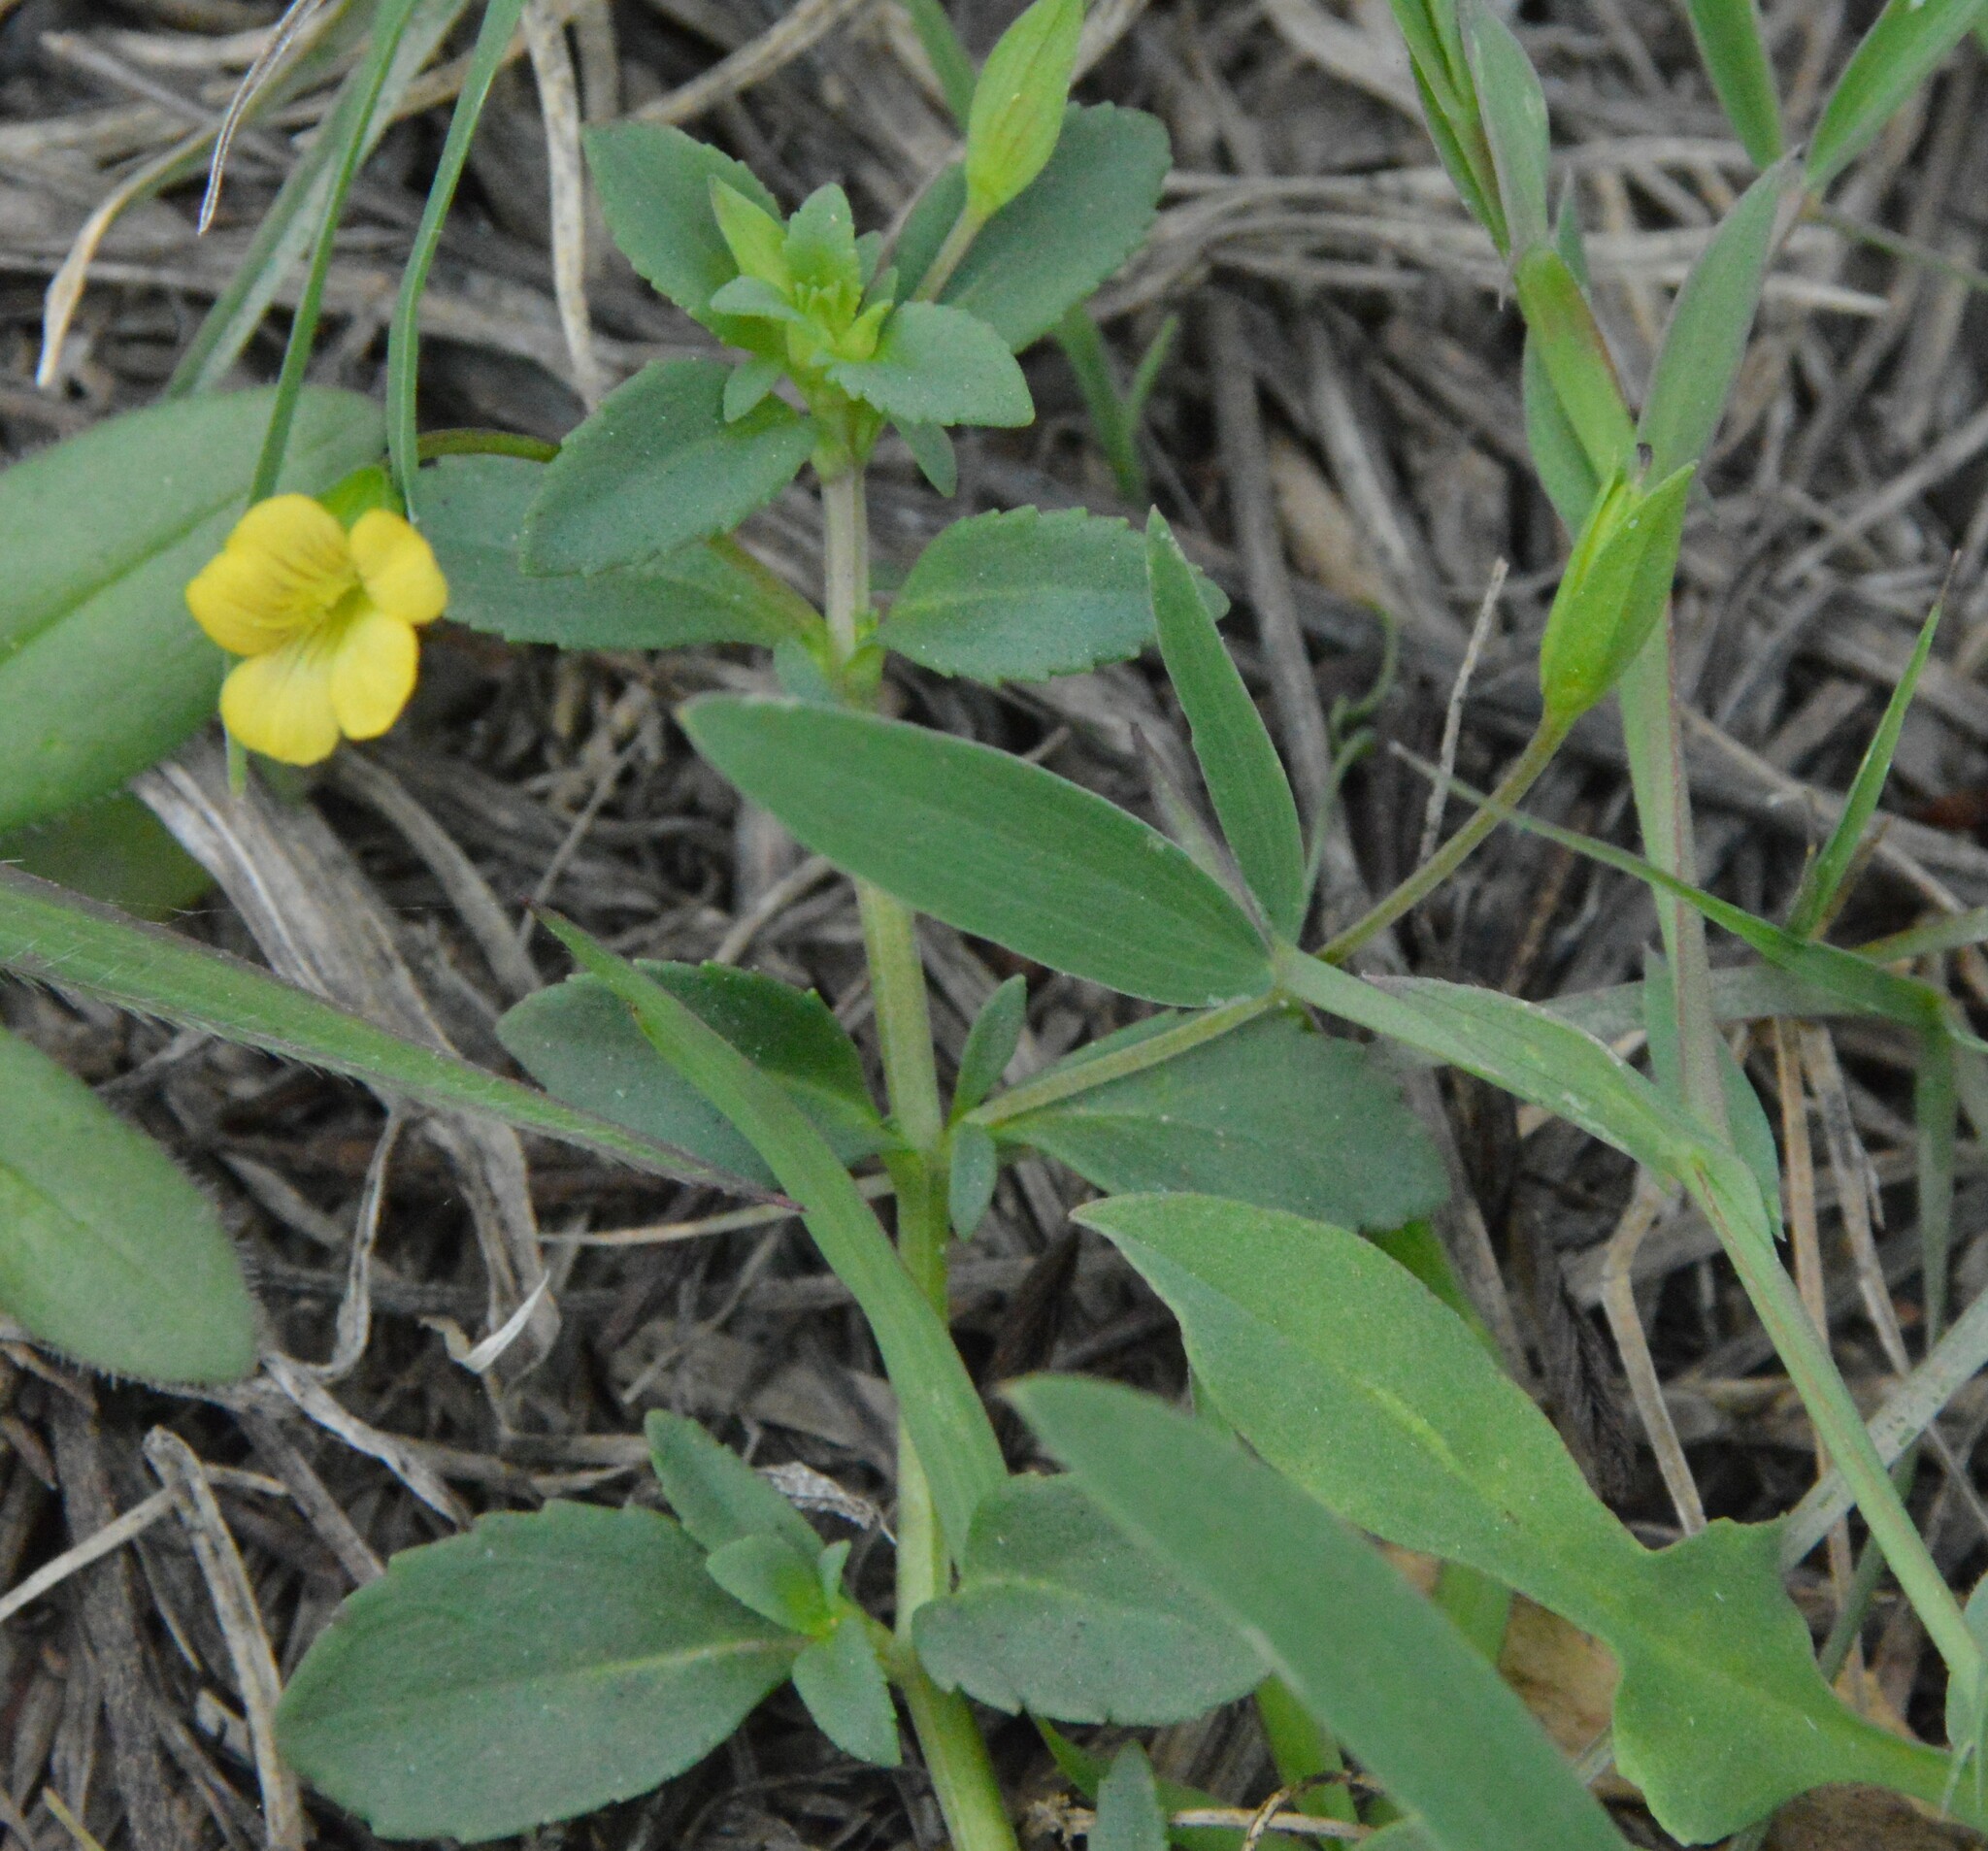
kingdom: Plantae
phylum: Tracheophyta
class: Magnoliopsida
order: Lamiales
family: Plantaginaceae
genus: Mecardonia
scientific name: Mecardonia procumbens
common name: Baby jump-up
